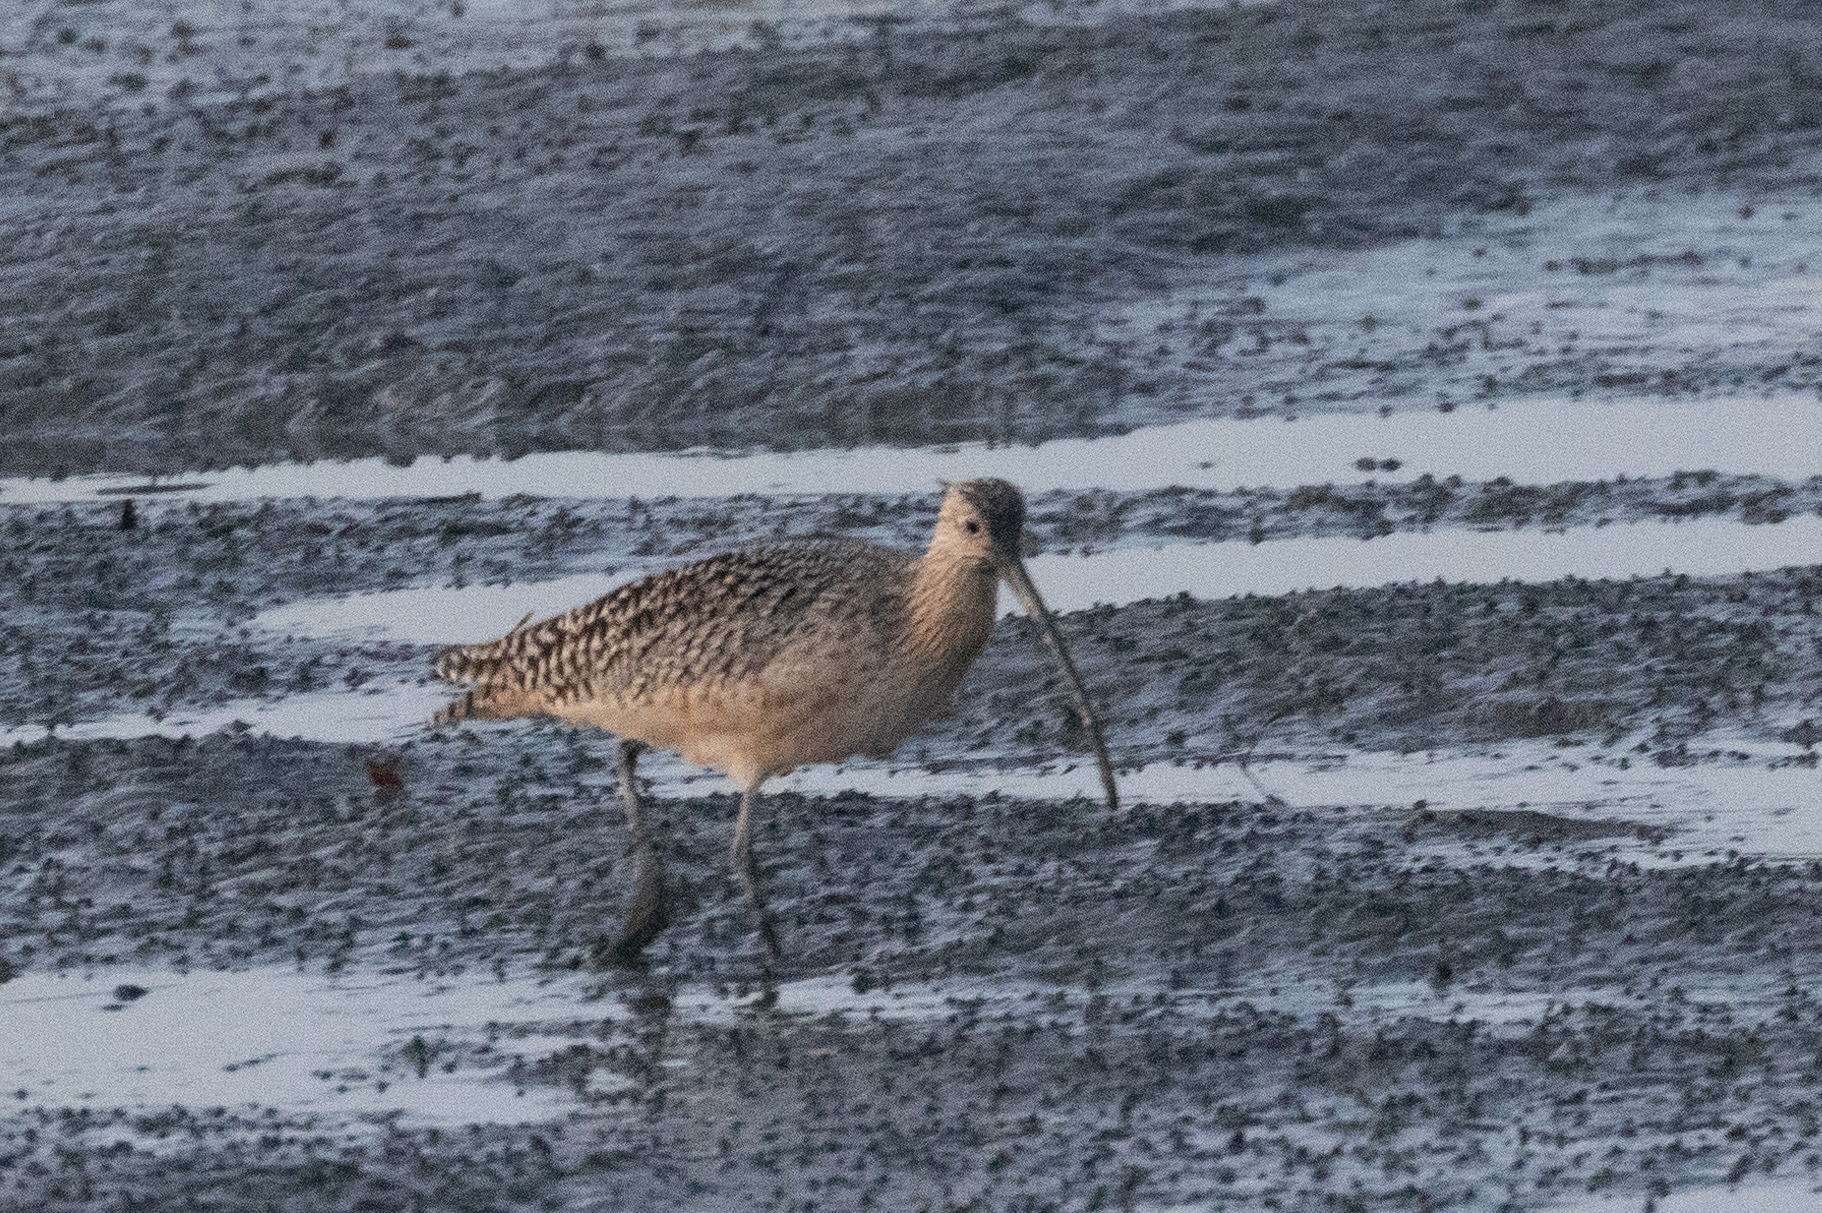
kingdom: Animalia
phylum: Chordata
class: Aves
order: Charadriiformes
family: Scolopacidae
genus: Numenius
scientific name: Numenius americanus
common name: Long-billed curlew
